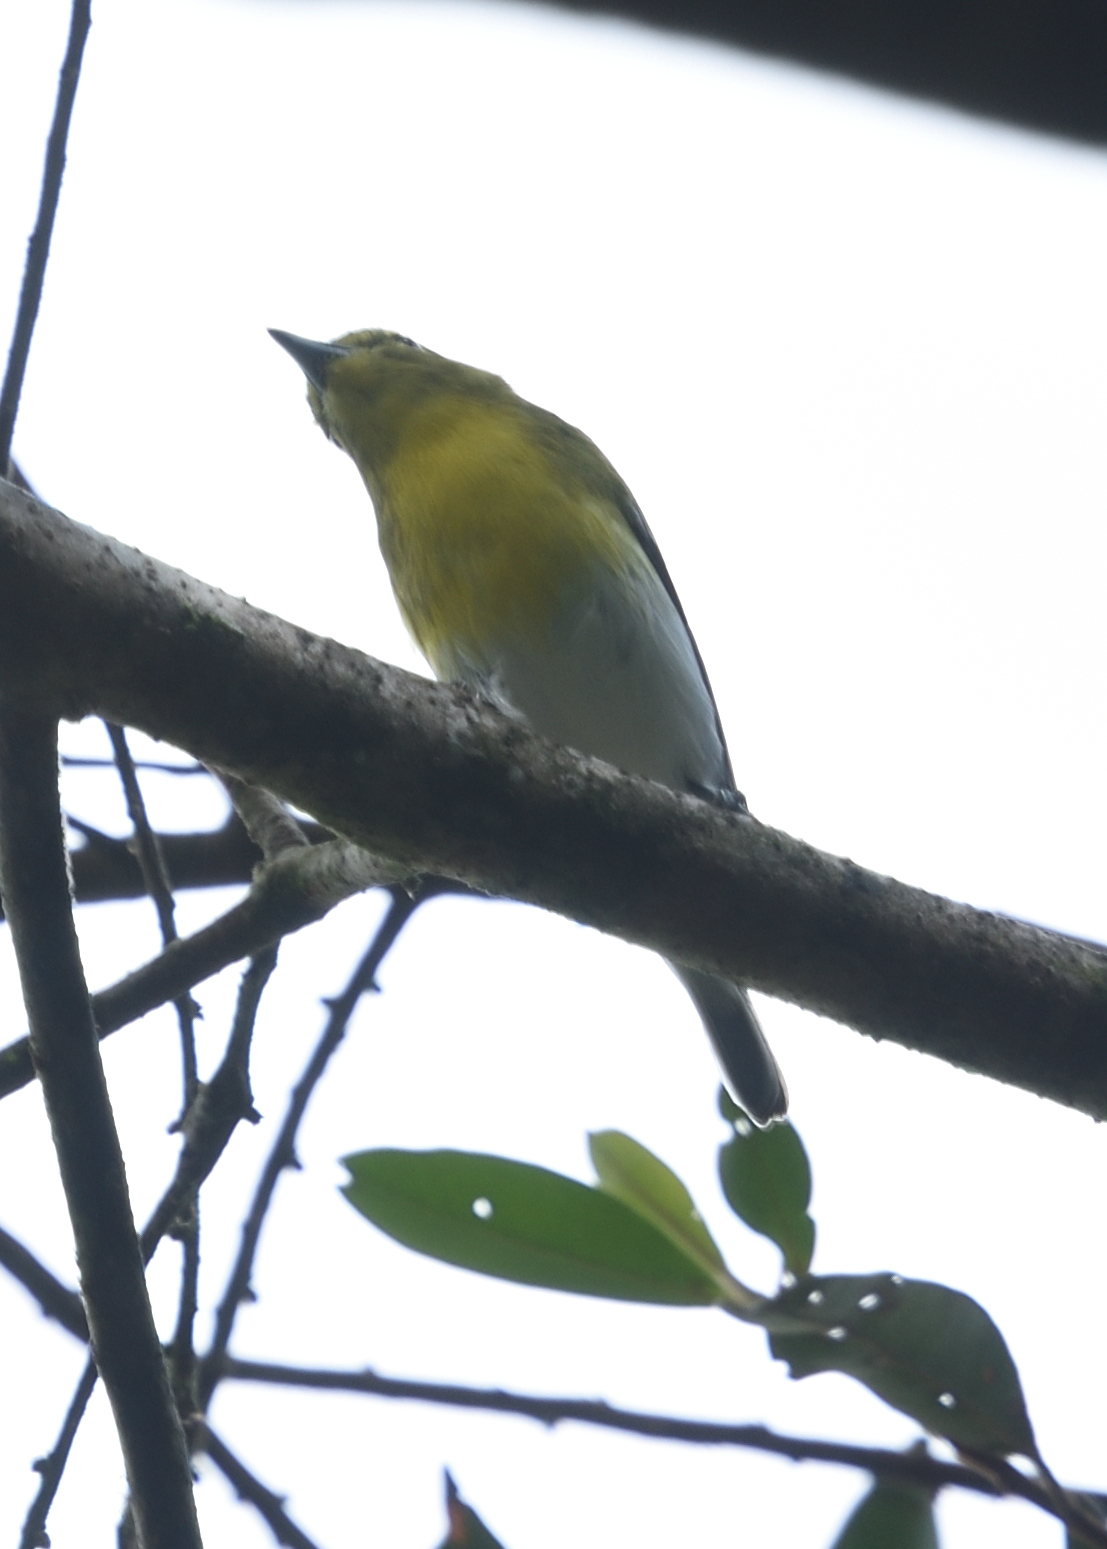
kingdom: Animalia
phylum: Chordata
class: Aves
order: Passeriformes
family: Vireonidae
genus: Vireo
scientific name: Vireo flavifrons
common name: Yellow-throated vireo
